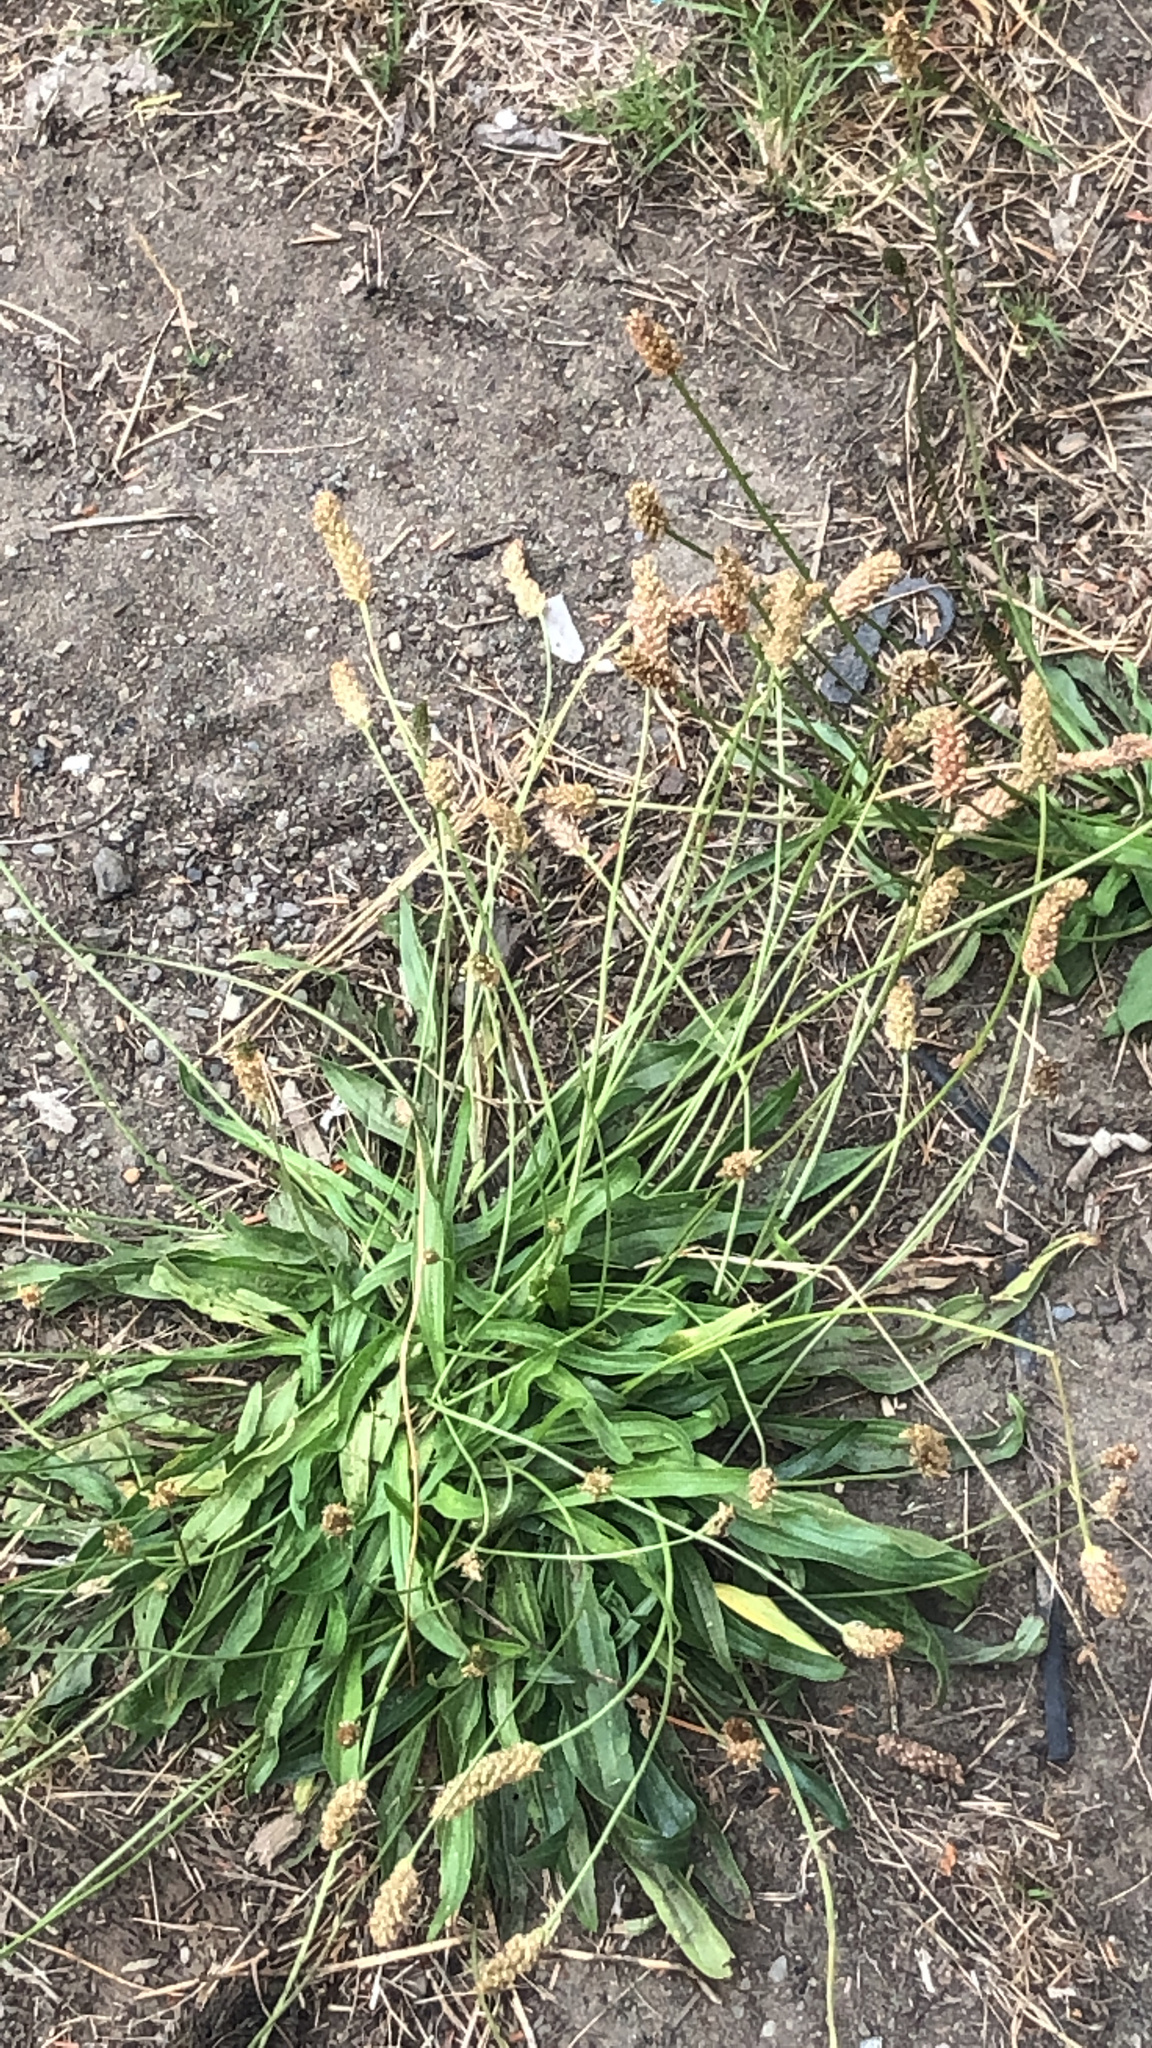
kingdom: Plantae
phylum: Tracheophyta
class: Magnoliopsida
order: Lamiales
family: Plantaginaceae
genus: Plantago
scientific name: Plantago lanceolata
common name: Ribwort plantain
